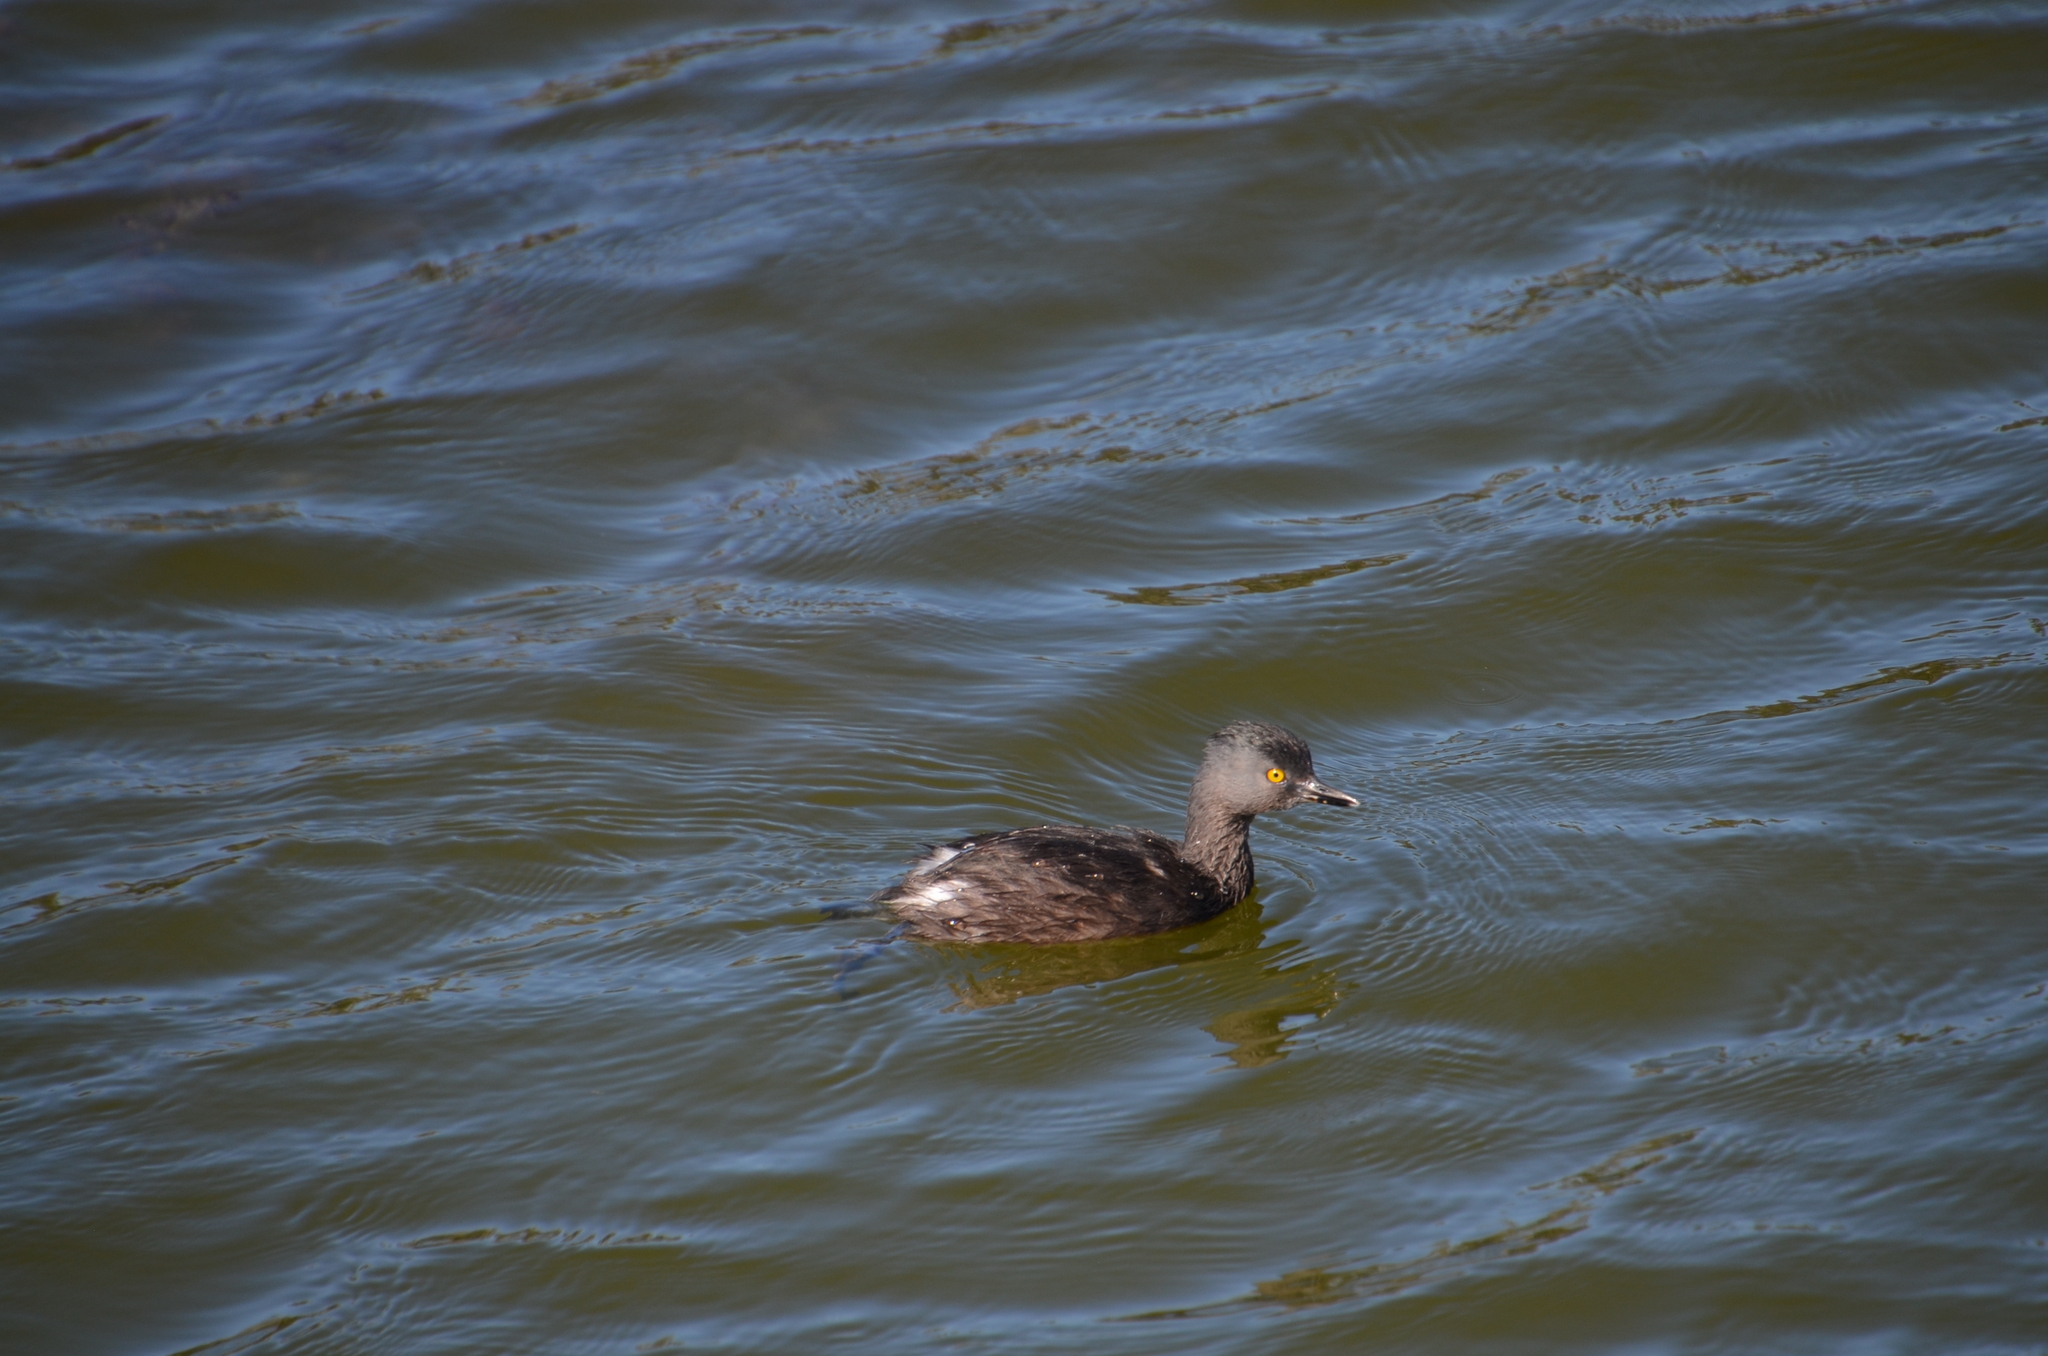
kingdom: Animalia
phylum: Chordata
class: Aves
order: Podicipediformes
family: Podicipedidae
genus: Tachybaptus
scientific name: Tachybaptus dominicus
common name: Least grebe
